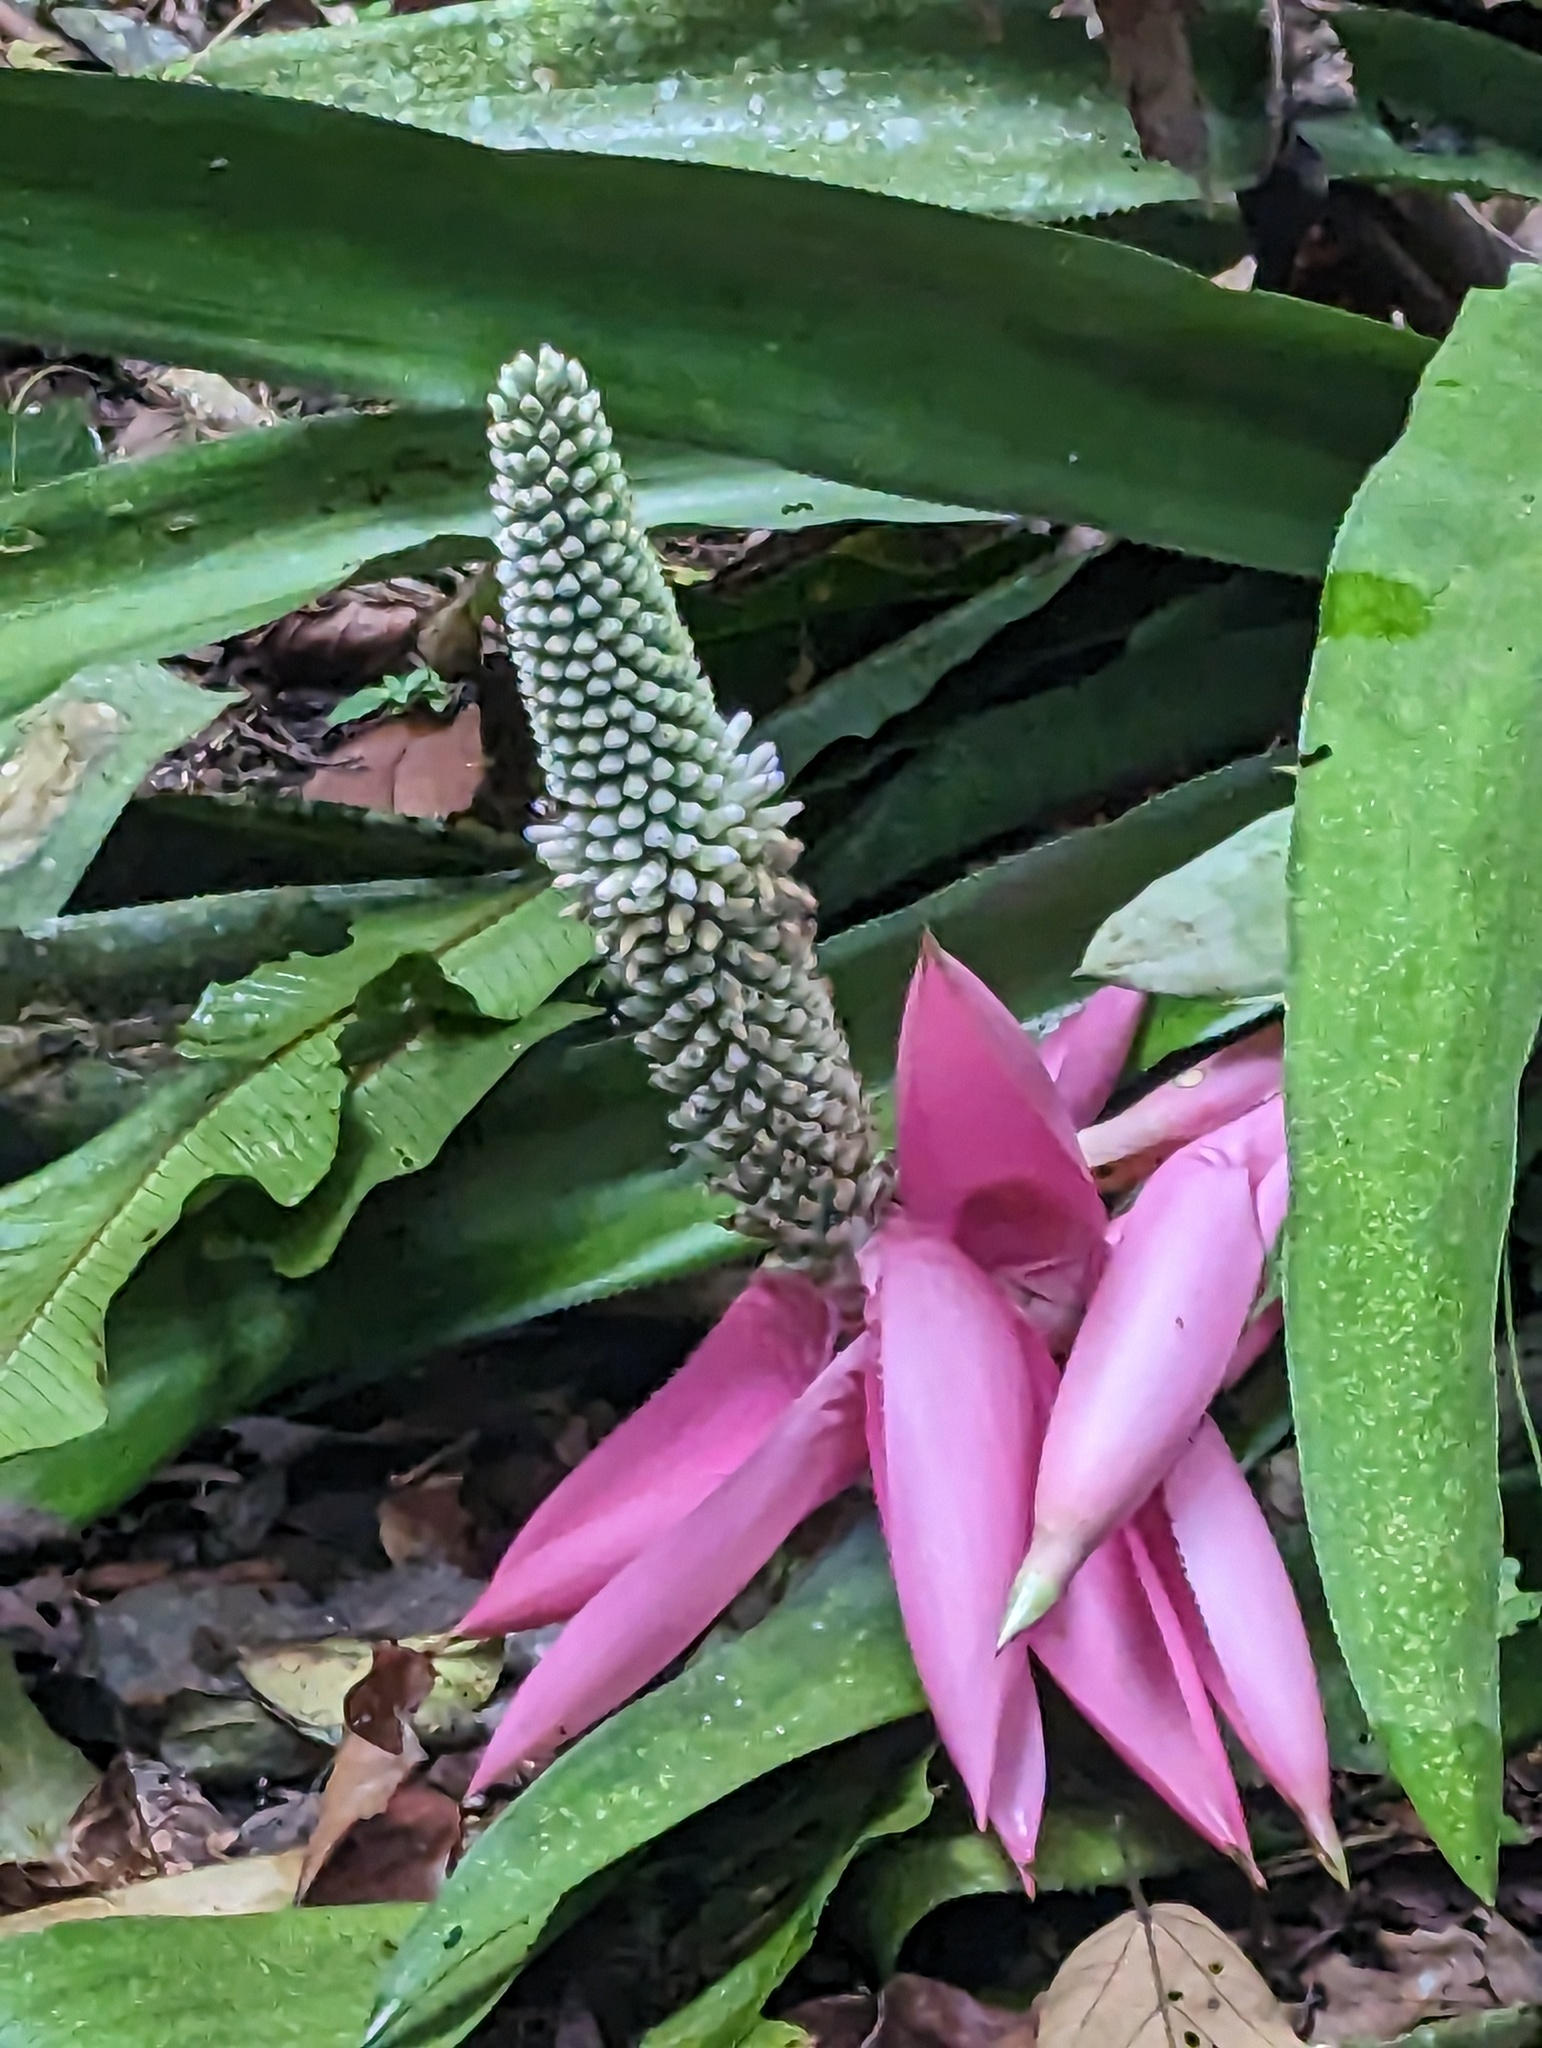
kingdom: Plantae
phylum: Tracheophyta
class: Liliopsida
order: Poales
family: Bromeliaceae
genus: Aechmea
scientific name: Aechmea mariae-reginae
